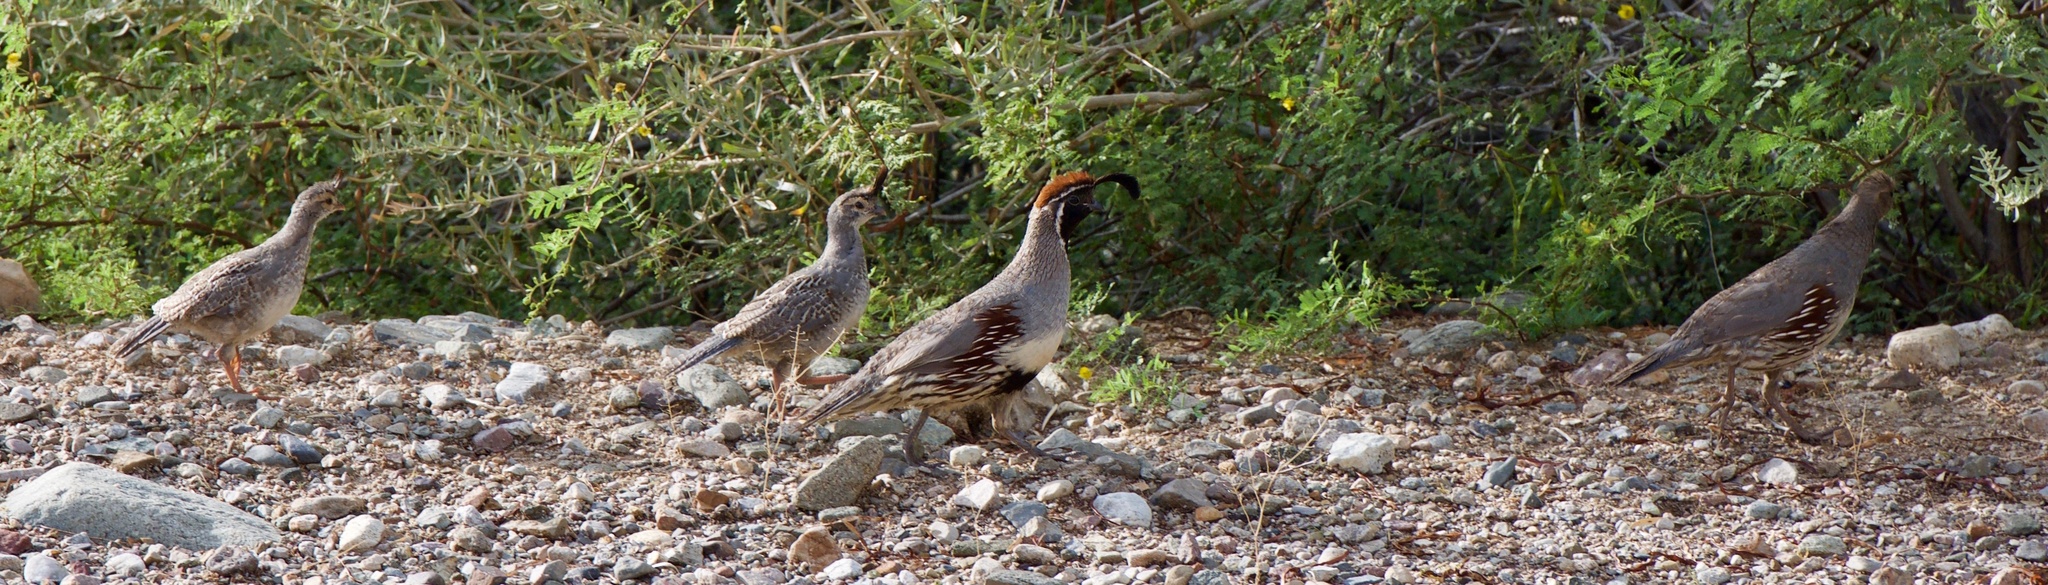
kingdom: Animalia
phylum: Chordata
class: Aves
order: Galliformes
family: Odontophoridae
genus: Callipepla
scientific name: Callipepla gambelii
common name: Gambel's quail
